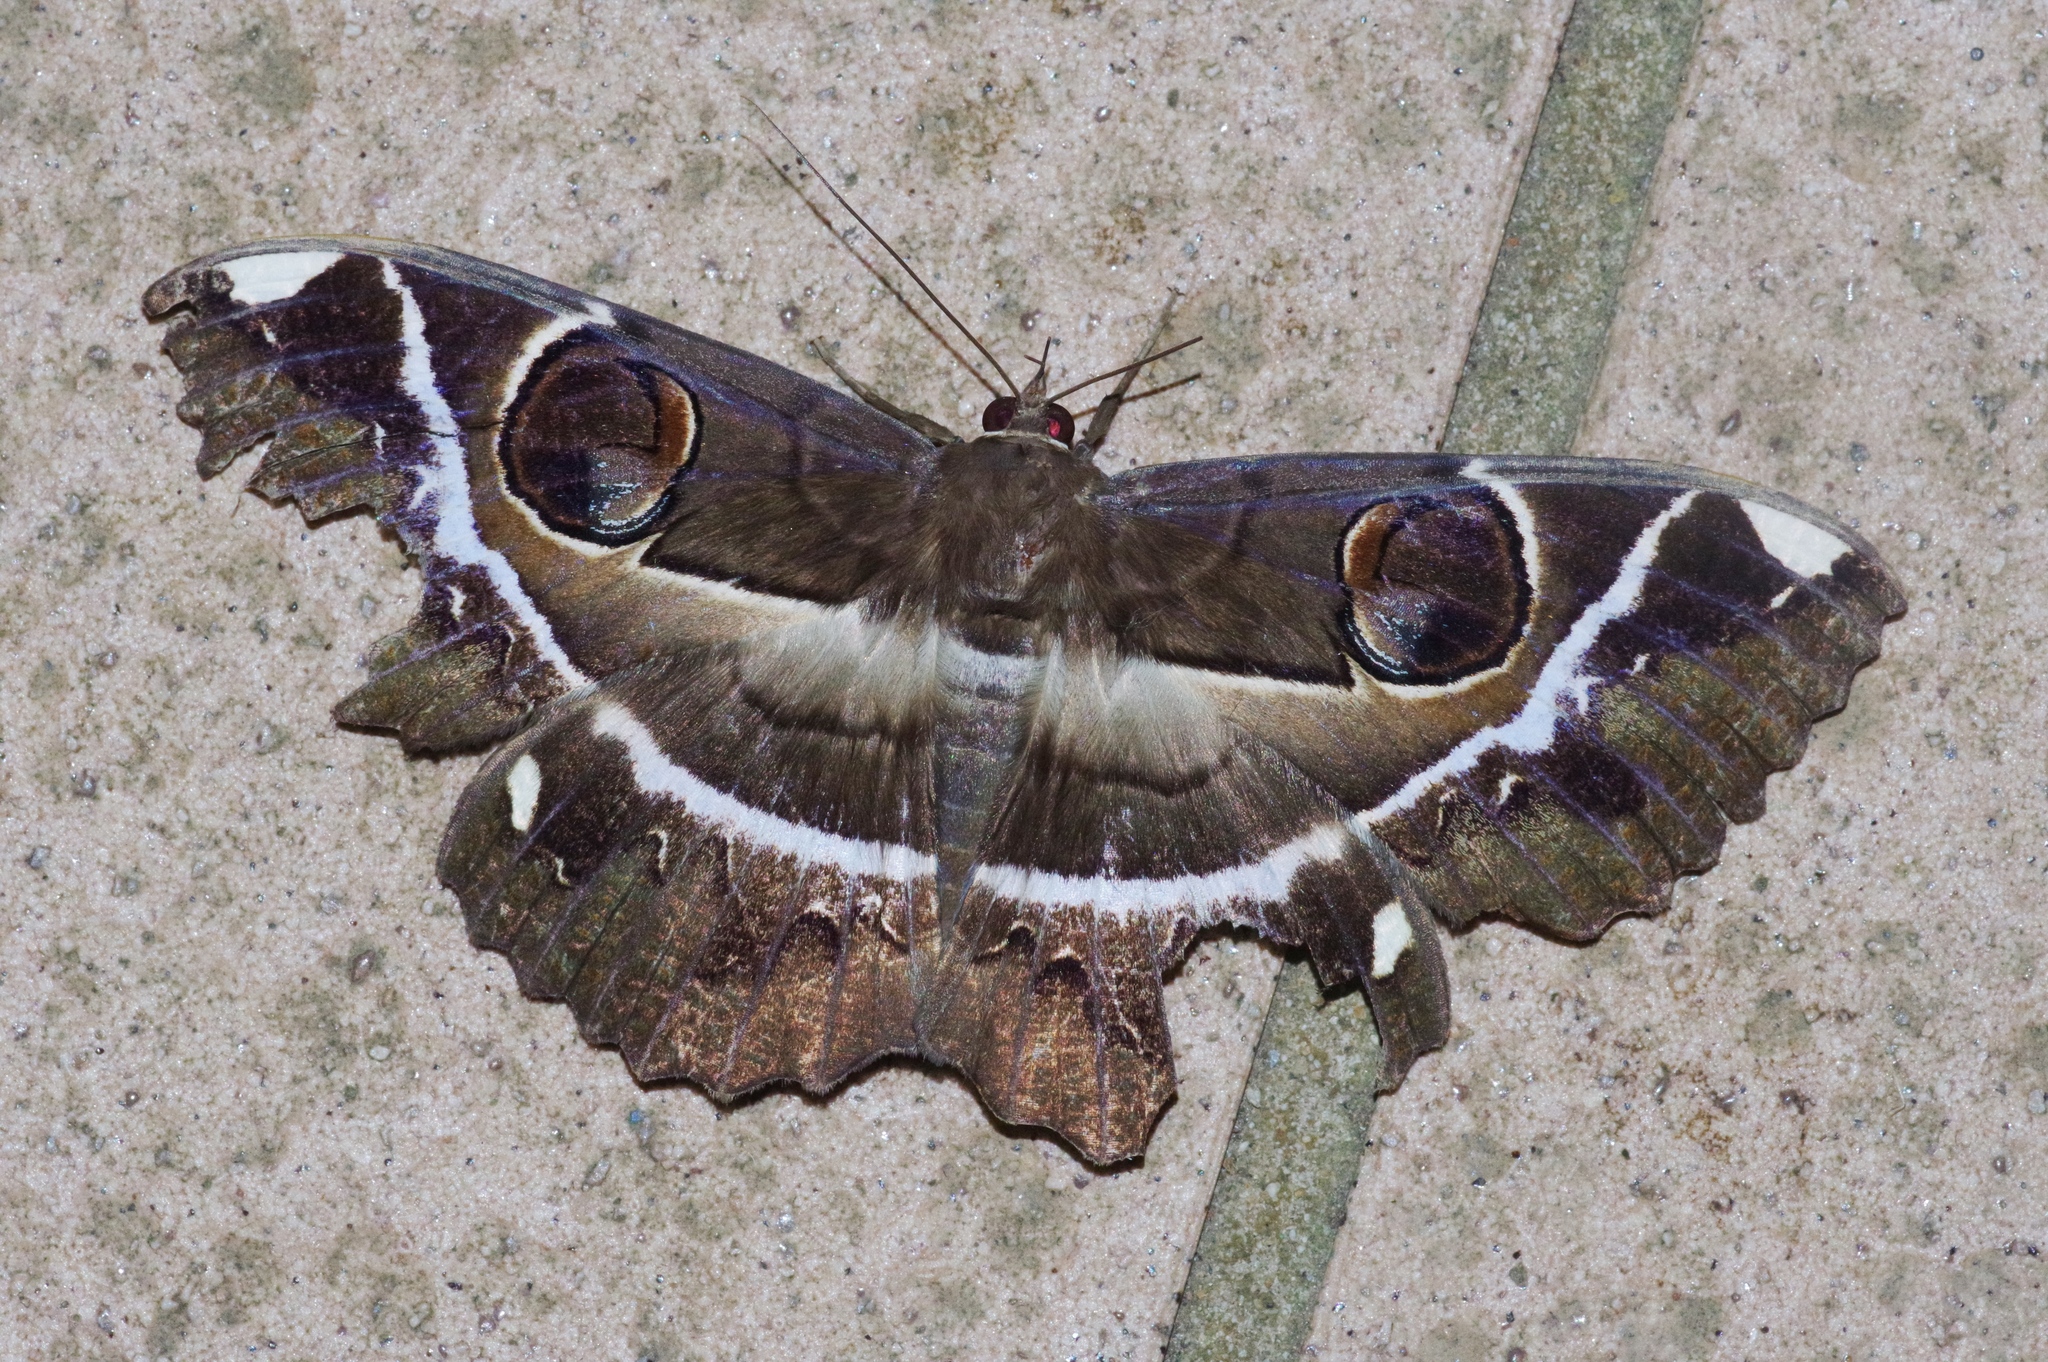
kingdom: Animalia
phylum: Arthropoda
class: Insecta
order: Lepidoptera
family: Erebidae
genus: Erebus
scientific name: Erebus ephesperis
